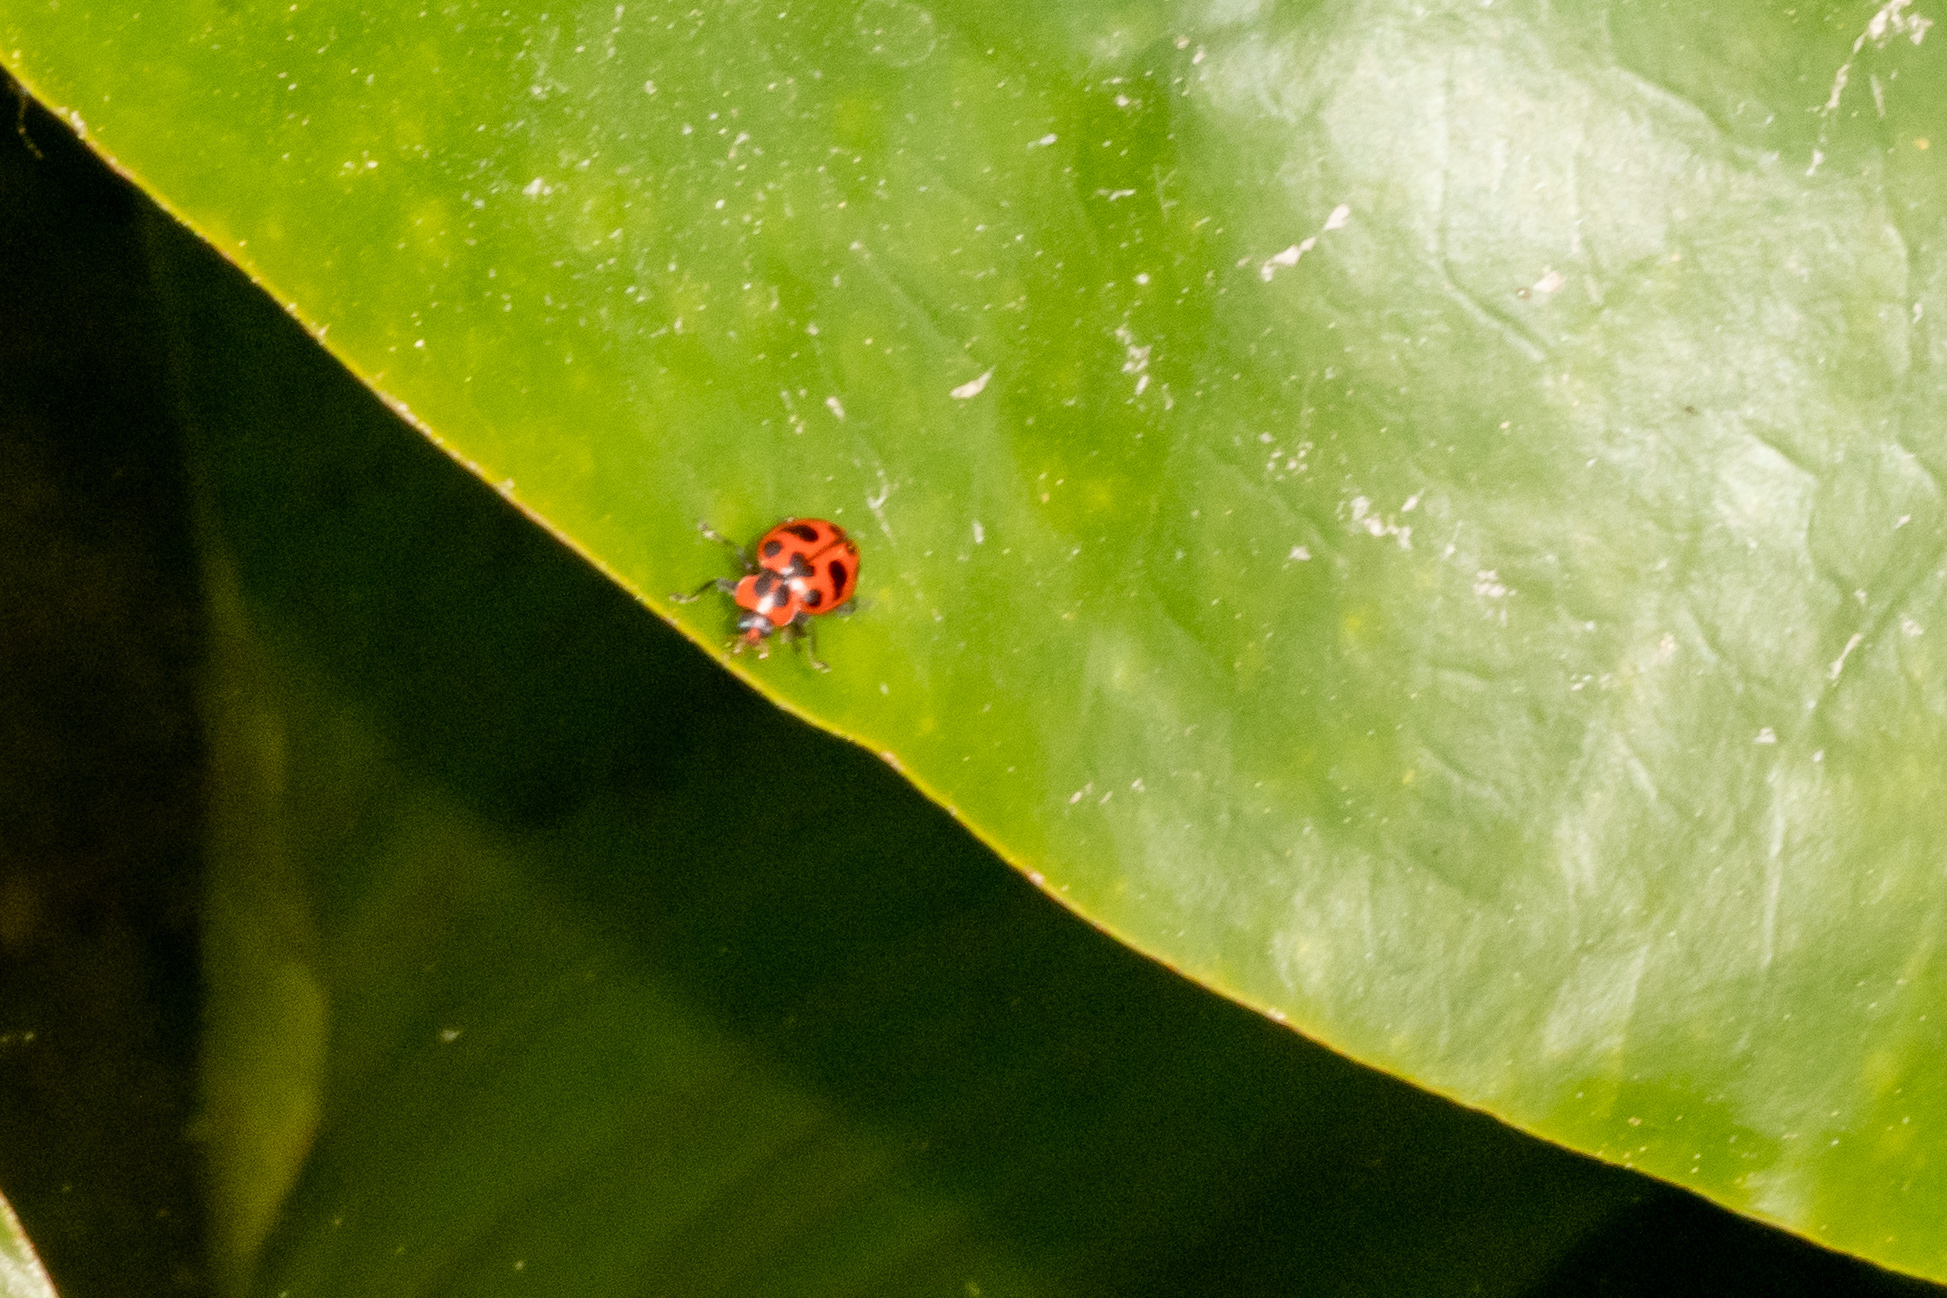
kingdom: Animalia
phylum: Arthropoda
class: Insecta
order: Coleoptera
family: Coccinellidae
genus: Coleomegilla
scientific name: Coleomegilla maculata
